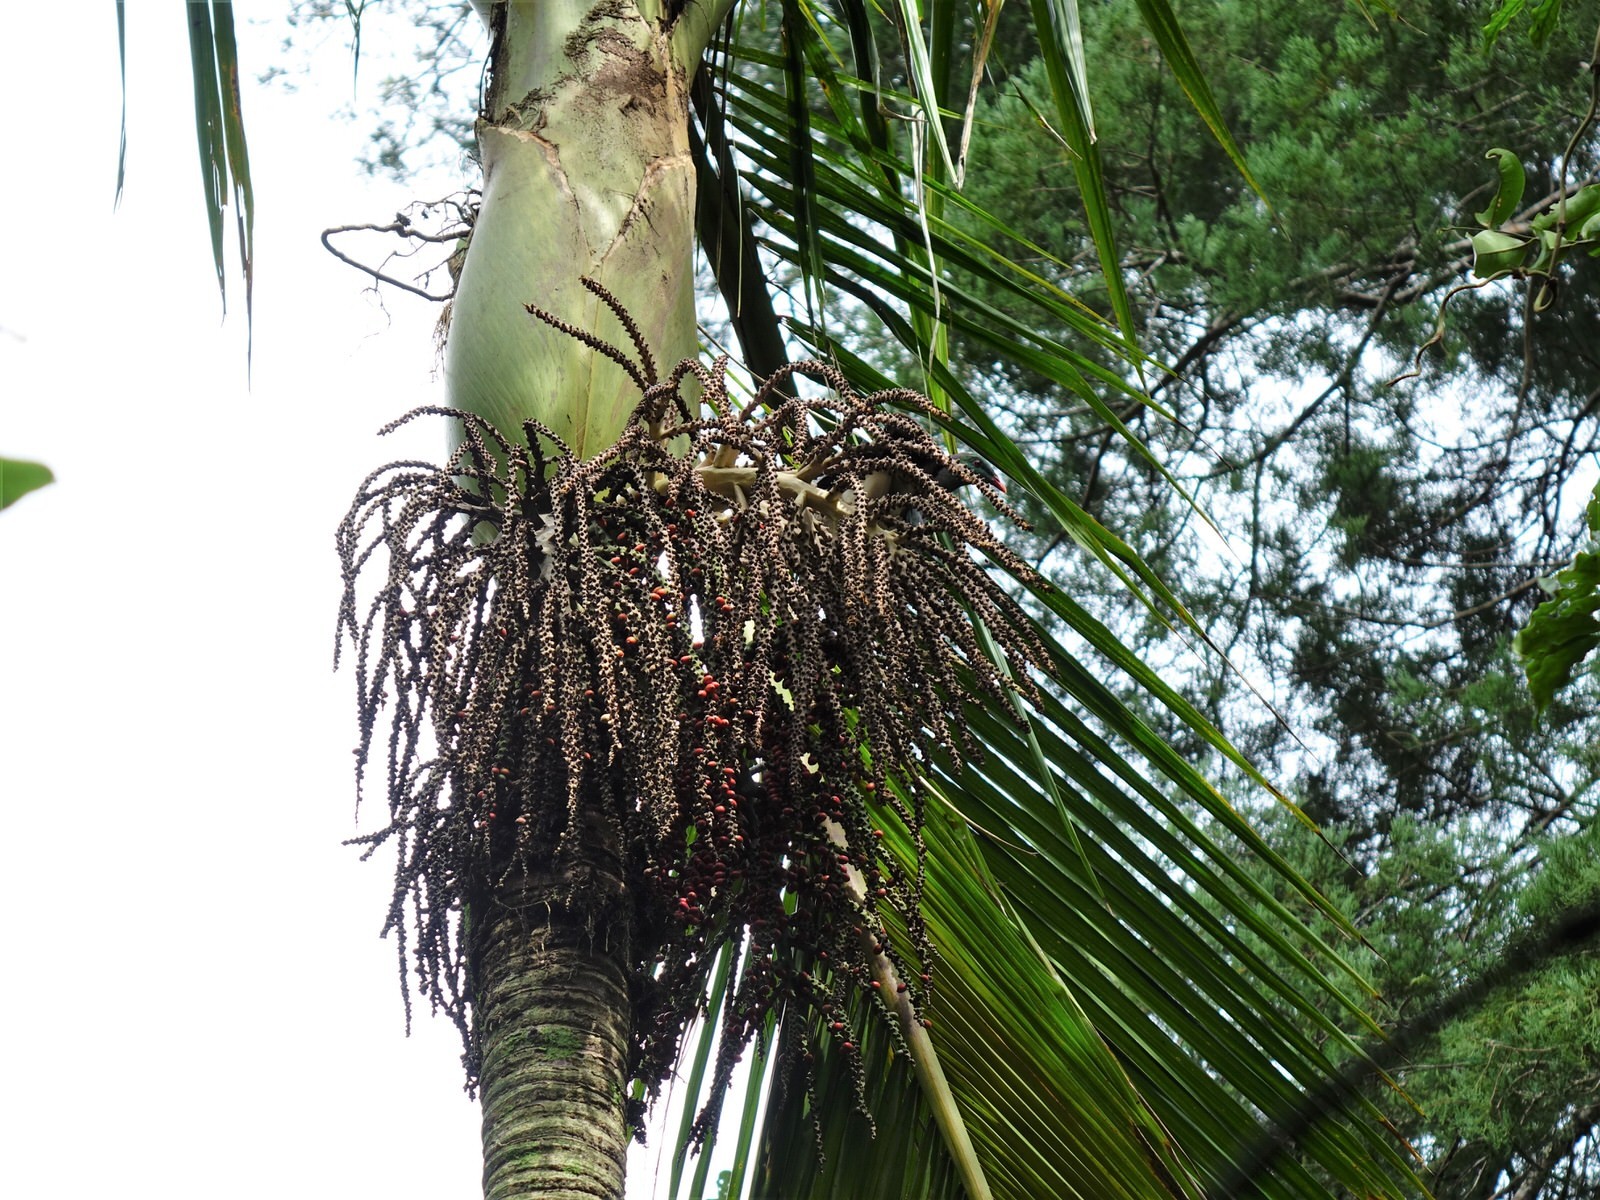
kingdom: Animalia
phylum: Chordata
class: Aves
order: Columbiformes
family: Columbidae
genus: Hemiphaga
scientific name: Hemiphaga novaeseelandiae
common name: New zealand pigeon
